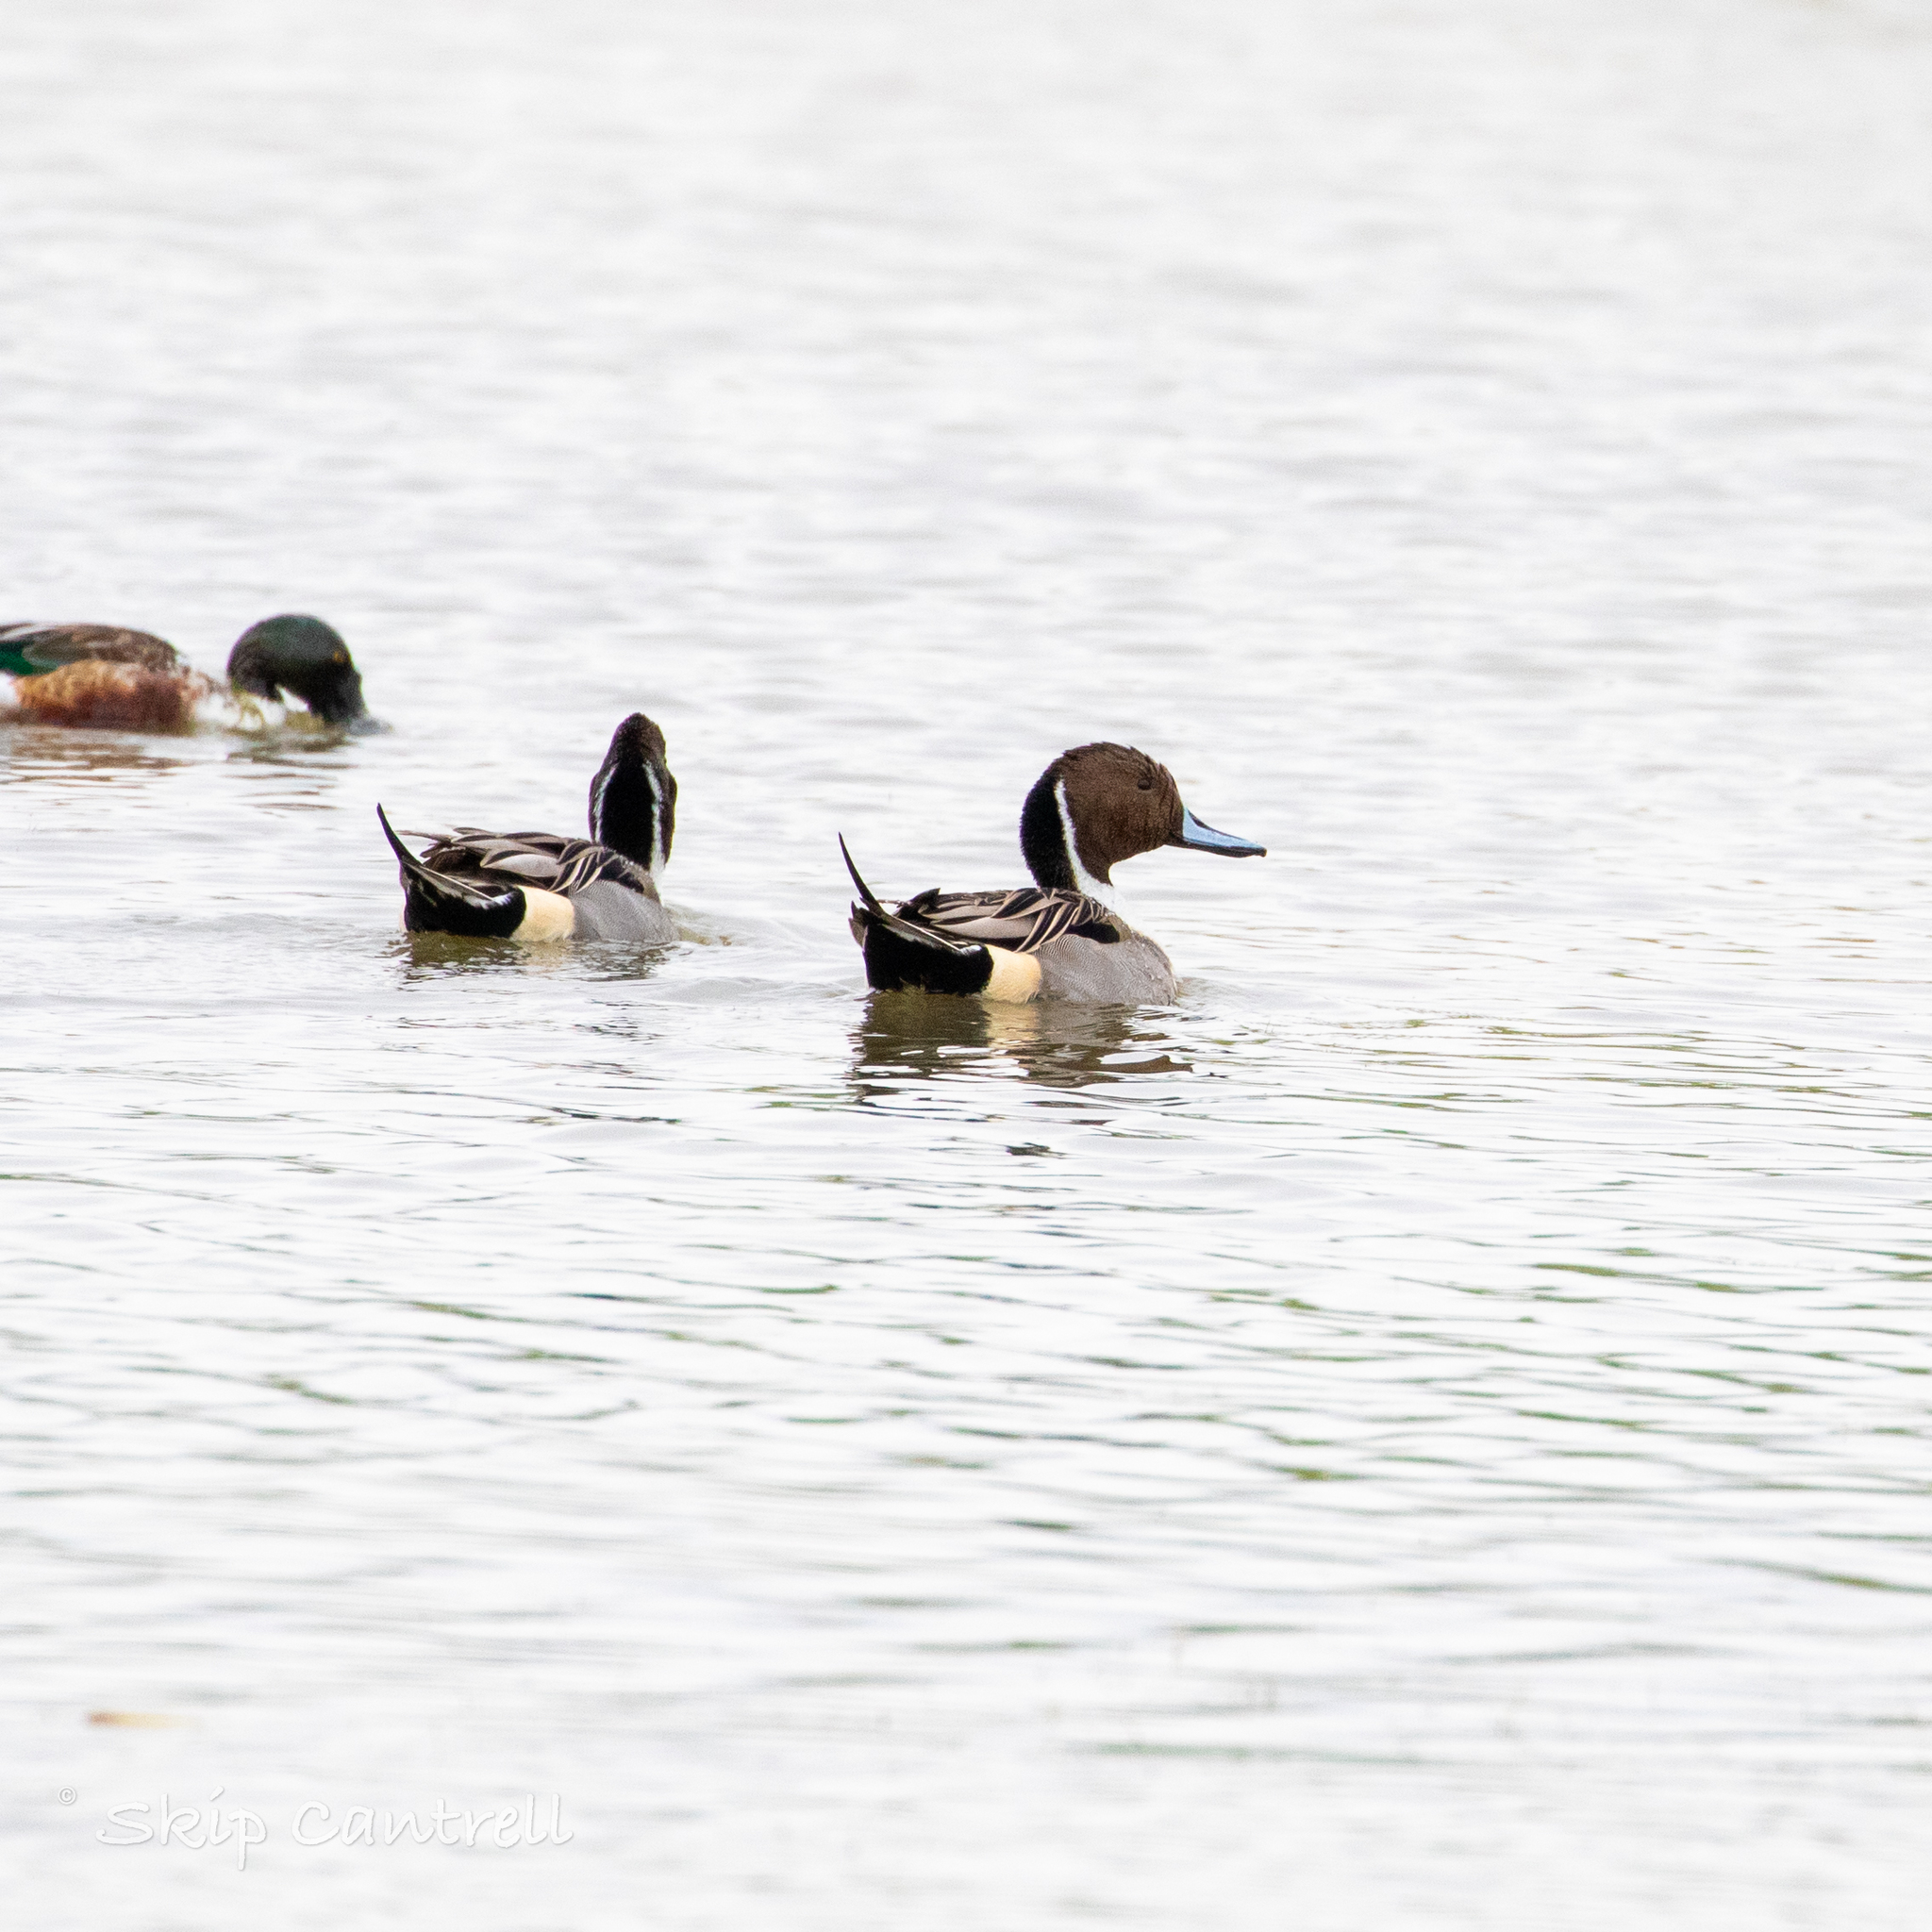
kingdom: Animalia
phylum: Chordata
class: Aves
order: Anseriformes
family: Anatidae
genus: Anas
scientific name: Anas acuta
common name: Northern pintail
